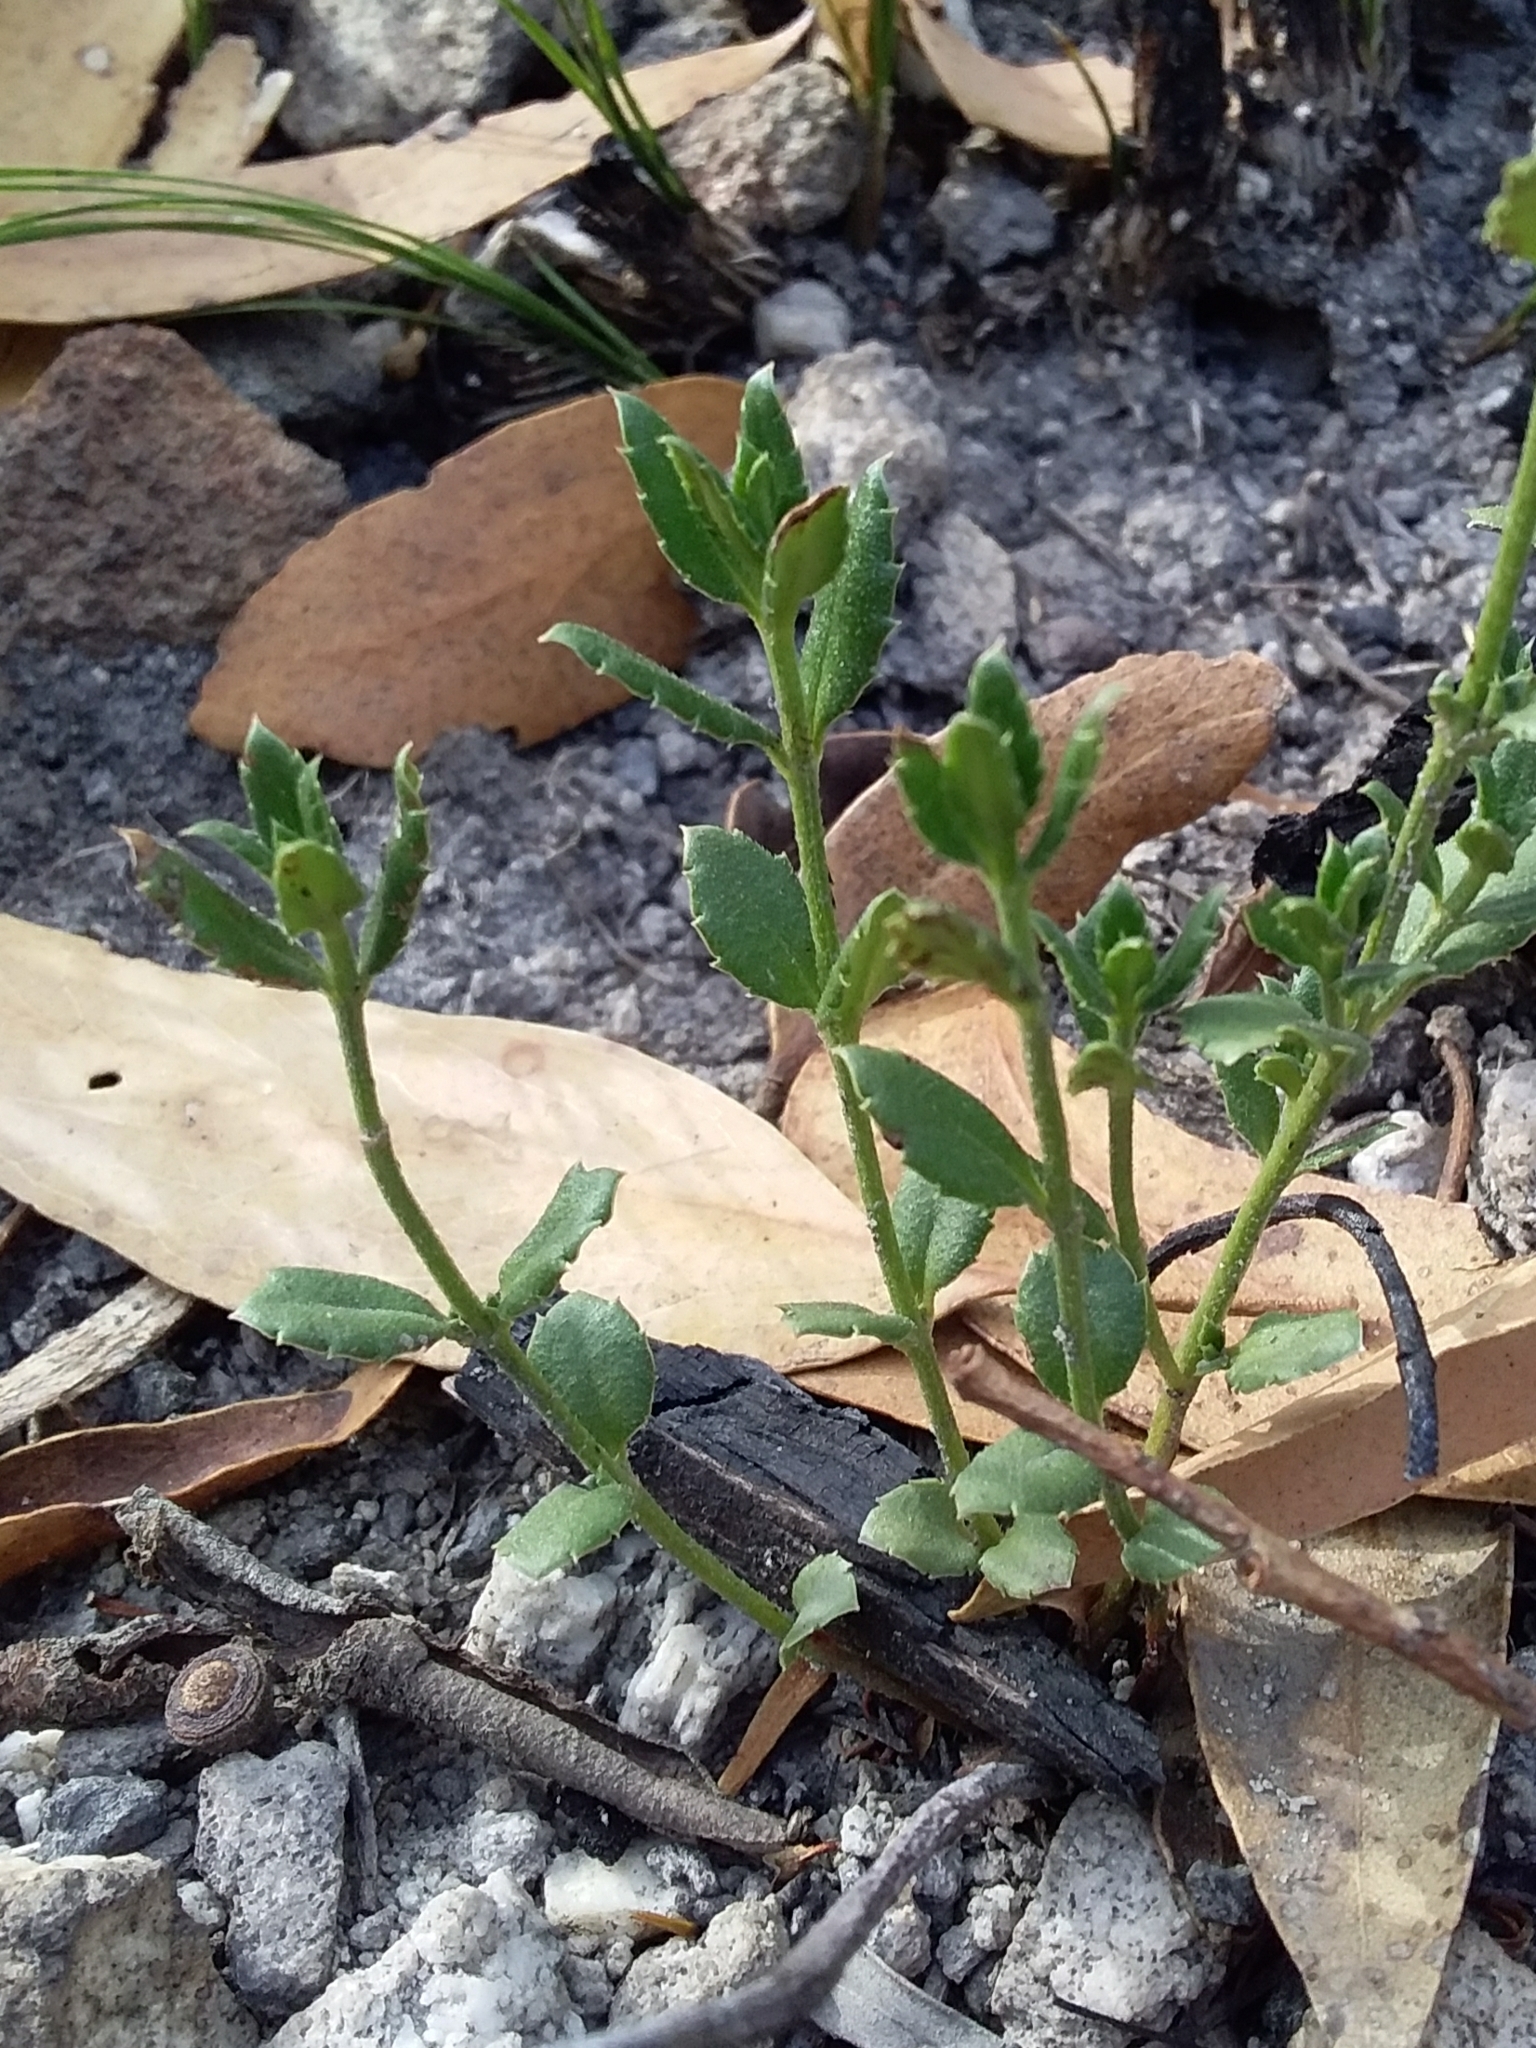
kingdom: Plantae
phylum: Tracheophyta
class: Magnoliopsida
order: Saxifragales
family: Haloragaceae
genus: Gonocarpus
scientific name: Gonocarpus tetragynus
